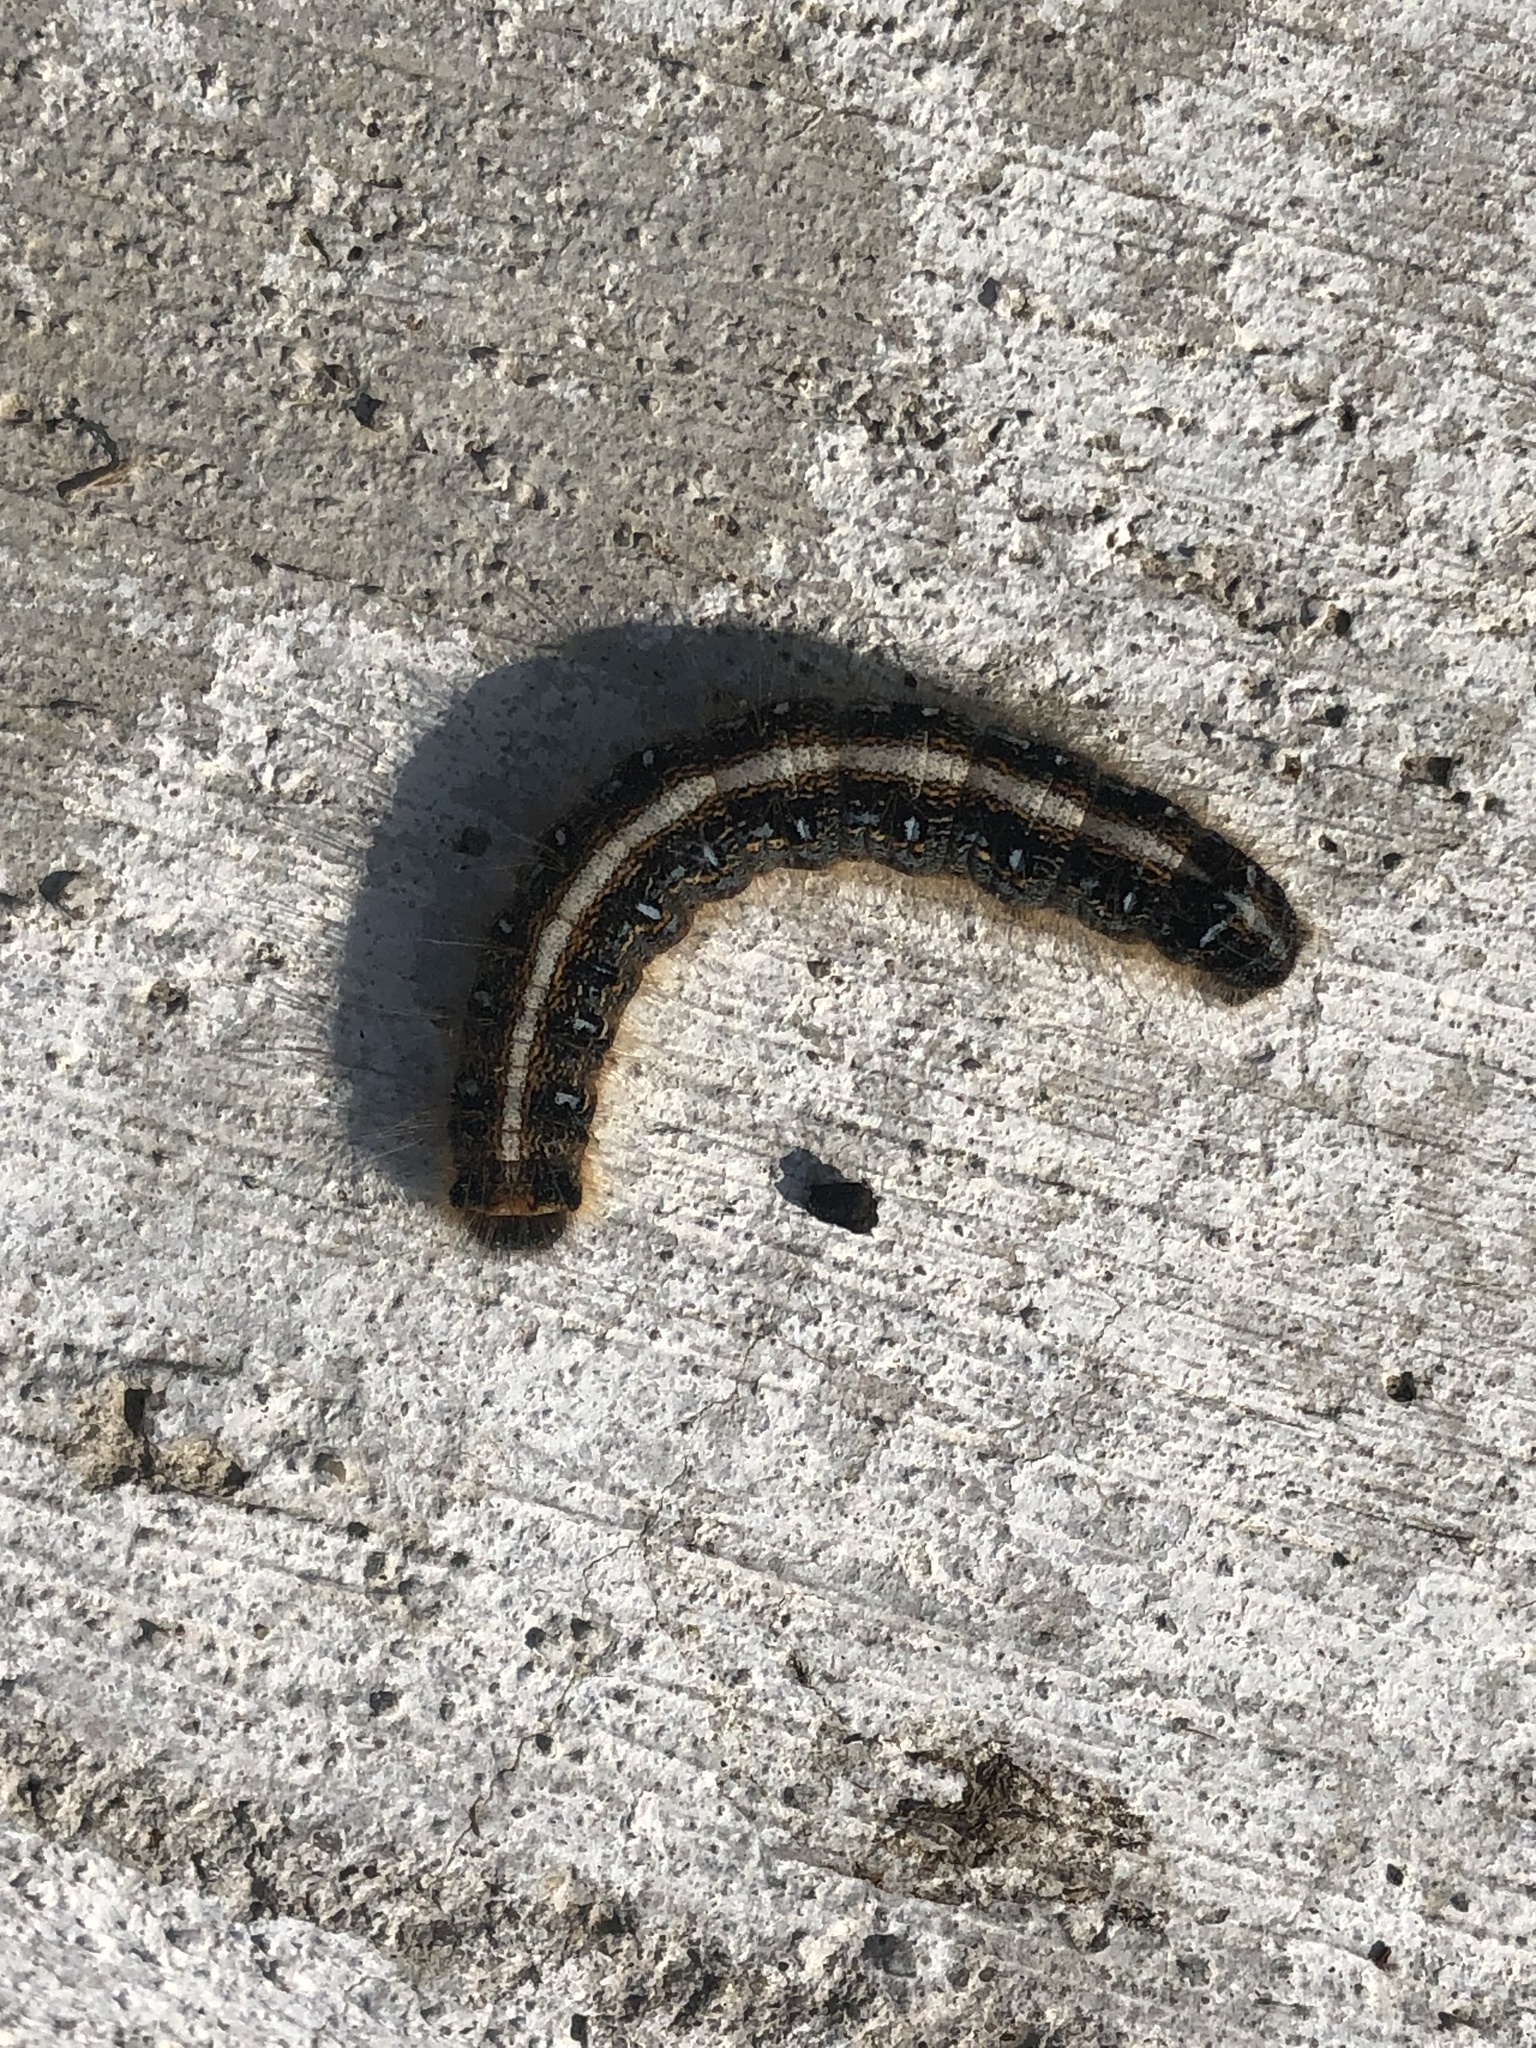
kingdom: Animalia
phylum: Arthropoda
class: Insecta
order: Lepidoptera
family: Lasiocampidae
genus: Malacosoma
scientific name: Malacosoma americana
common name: Eastern tent caterpillar moth
